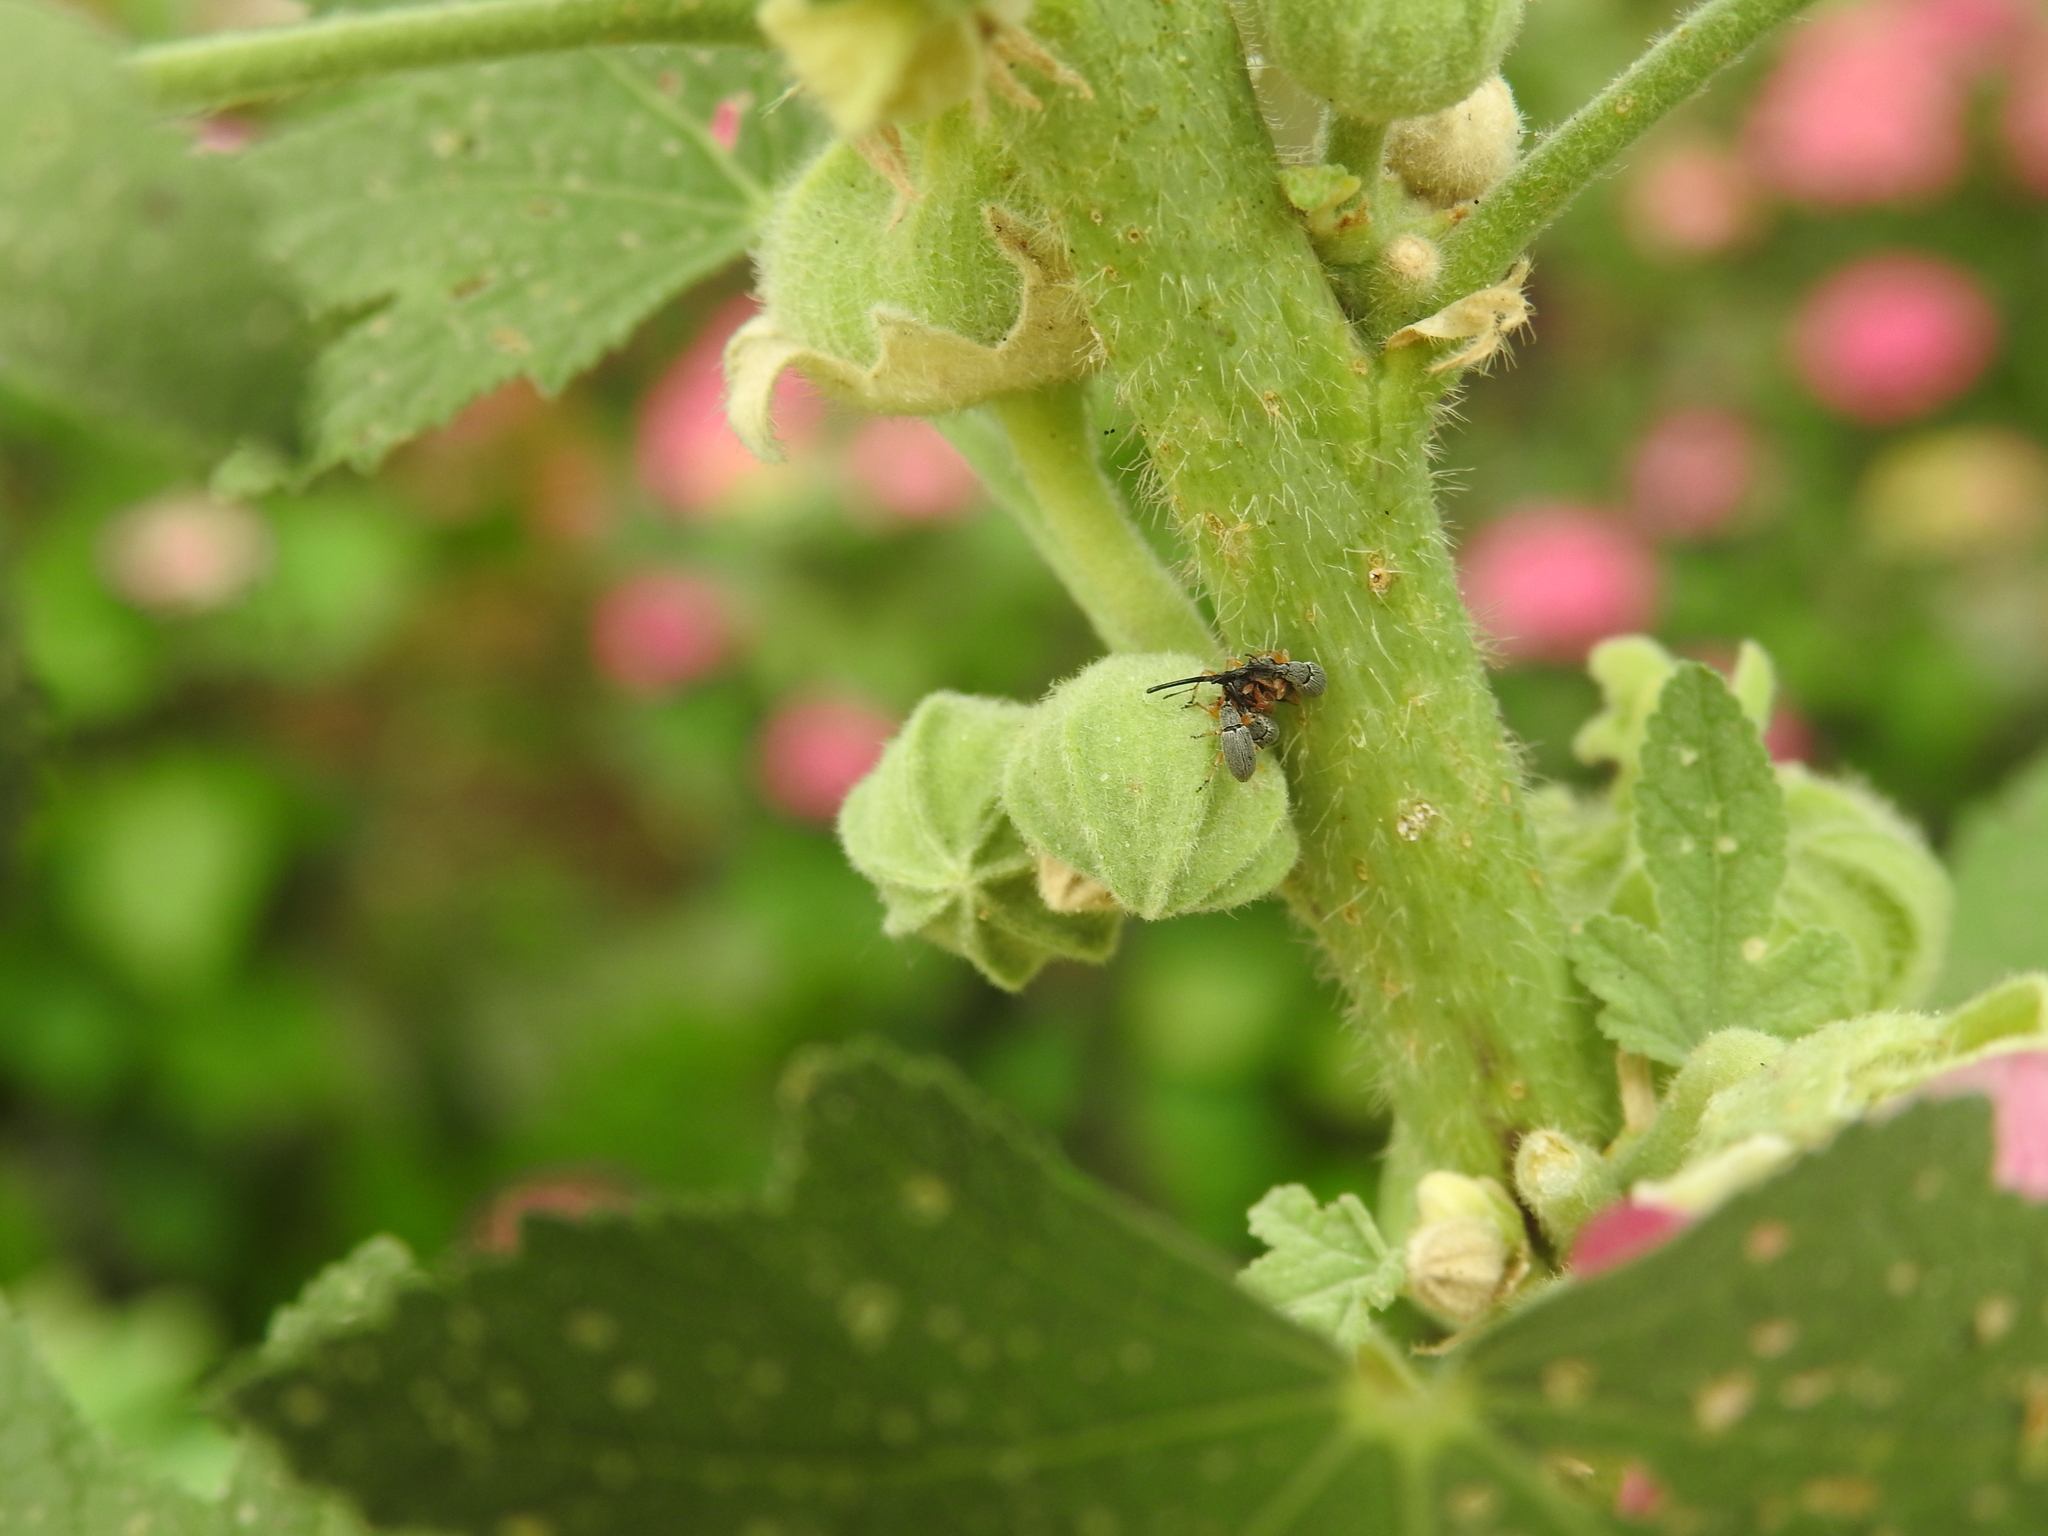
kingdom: Animalia
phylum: Arthropoda
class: Insecta
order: Coleoptera
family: Brentidae
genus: Rhopalapion
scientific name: Rhopalapion longirostre
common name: Hollyhock weevil
